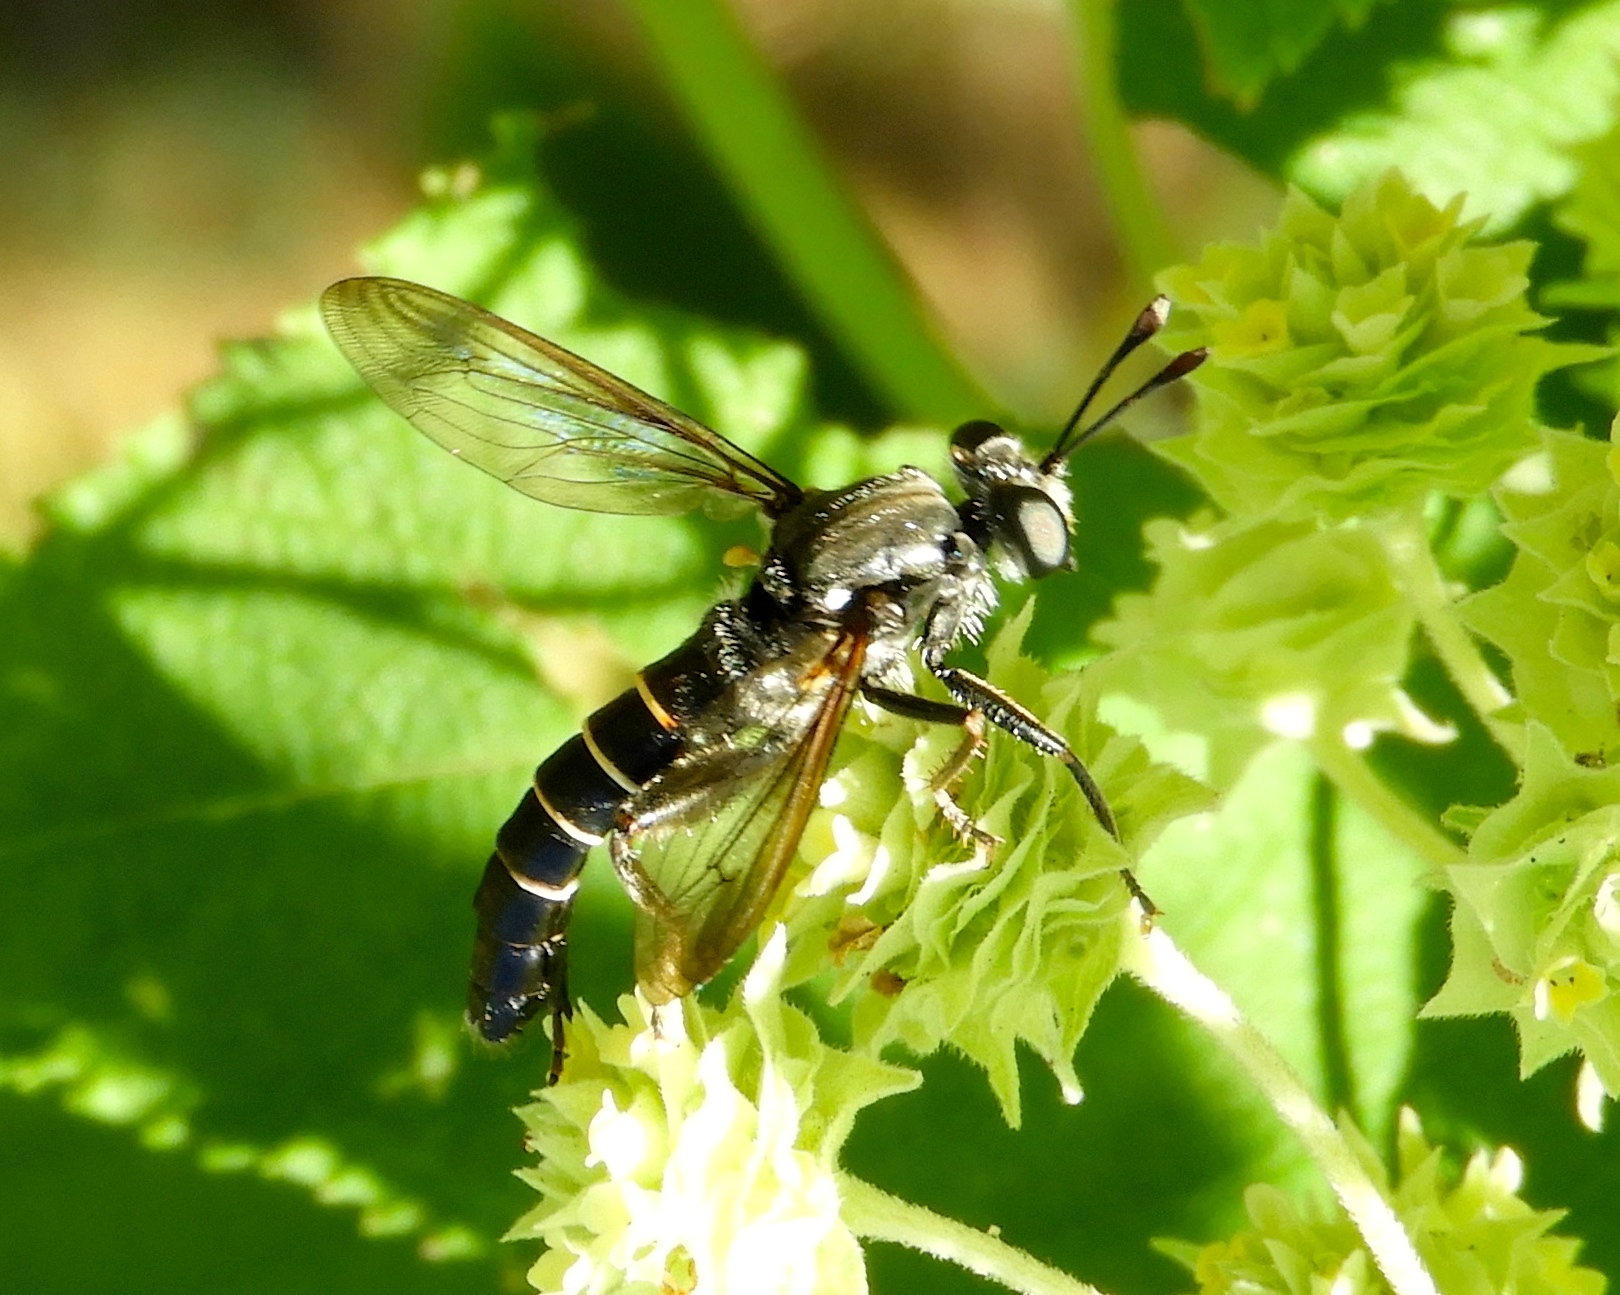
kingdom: Animalia
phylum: Arthropoda
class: Insecta
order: Diptera
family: Mydidae
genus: Mydas
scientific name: Mydas
